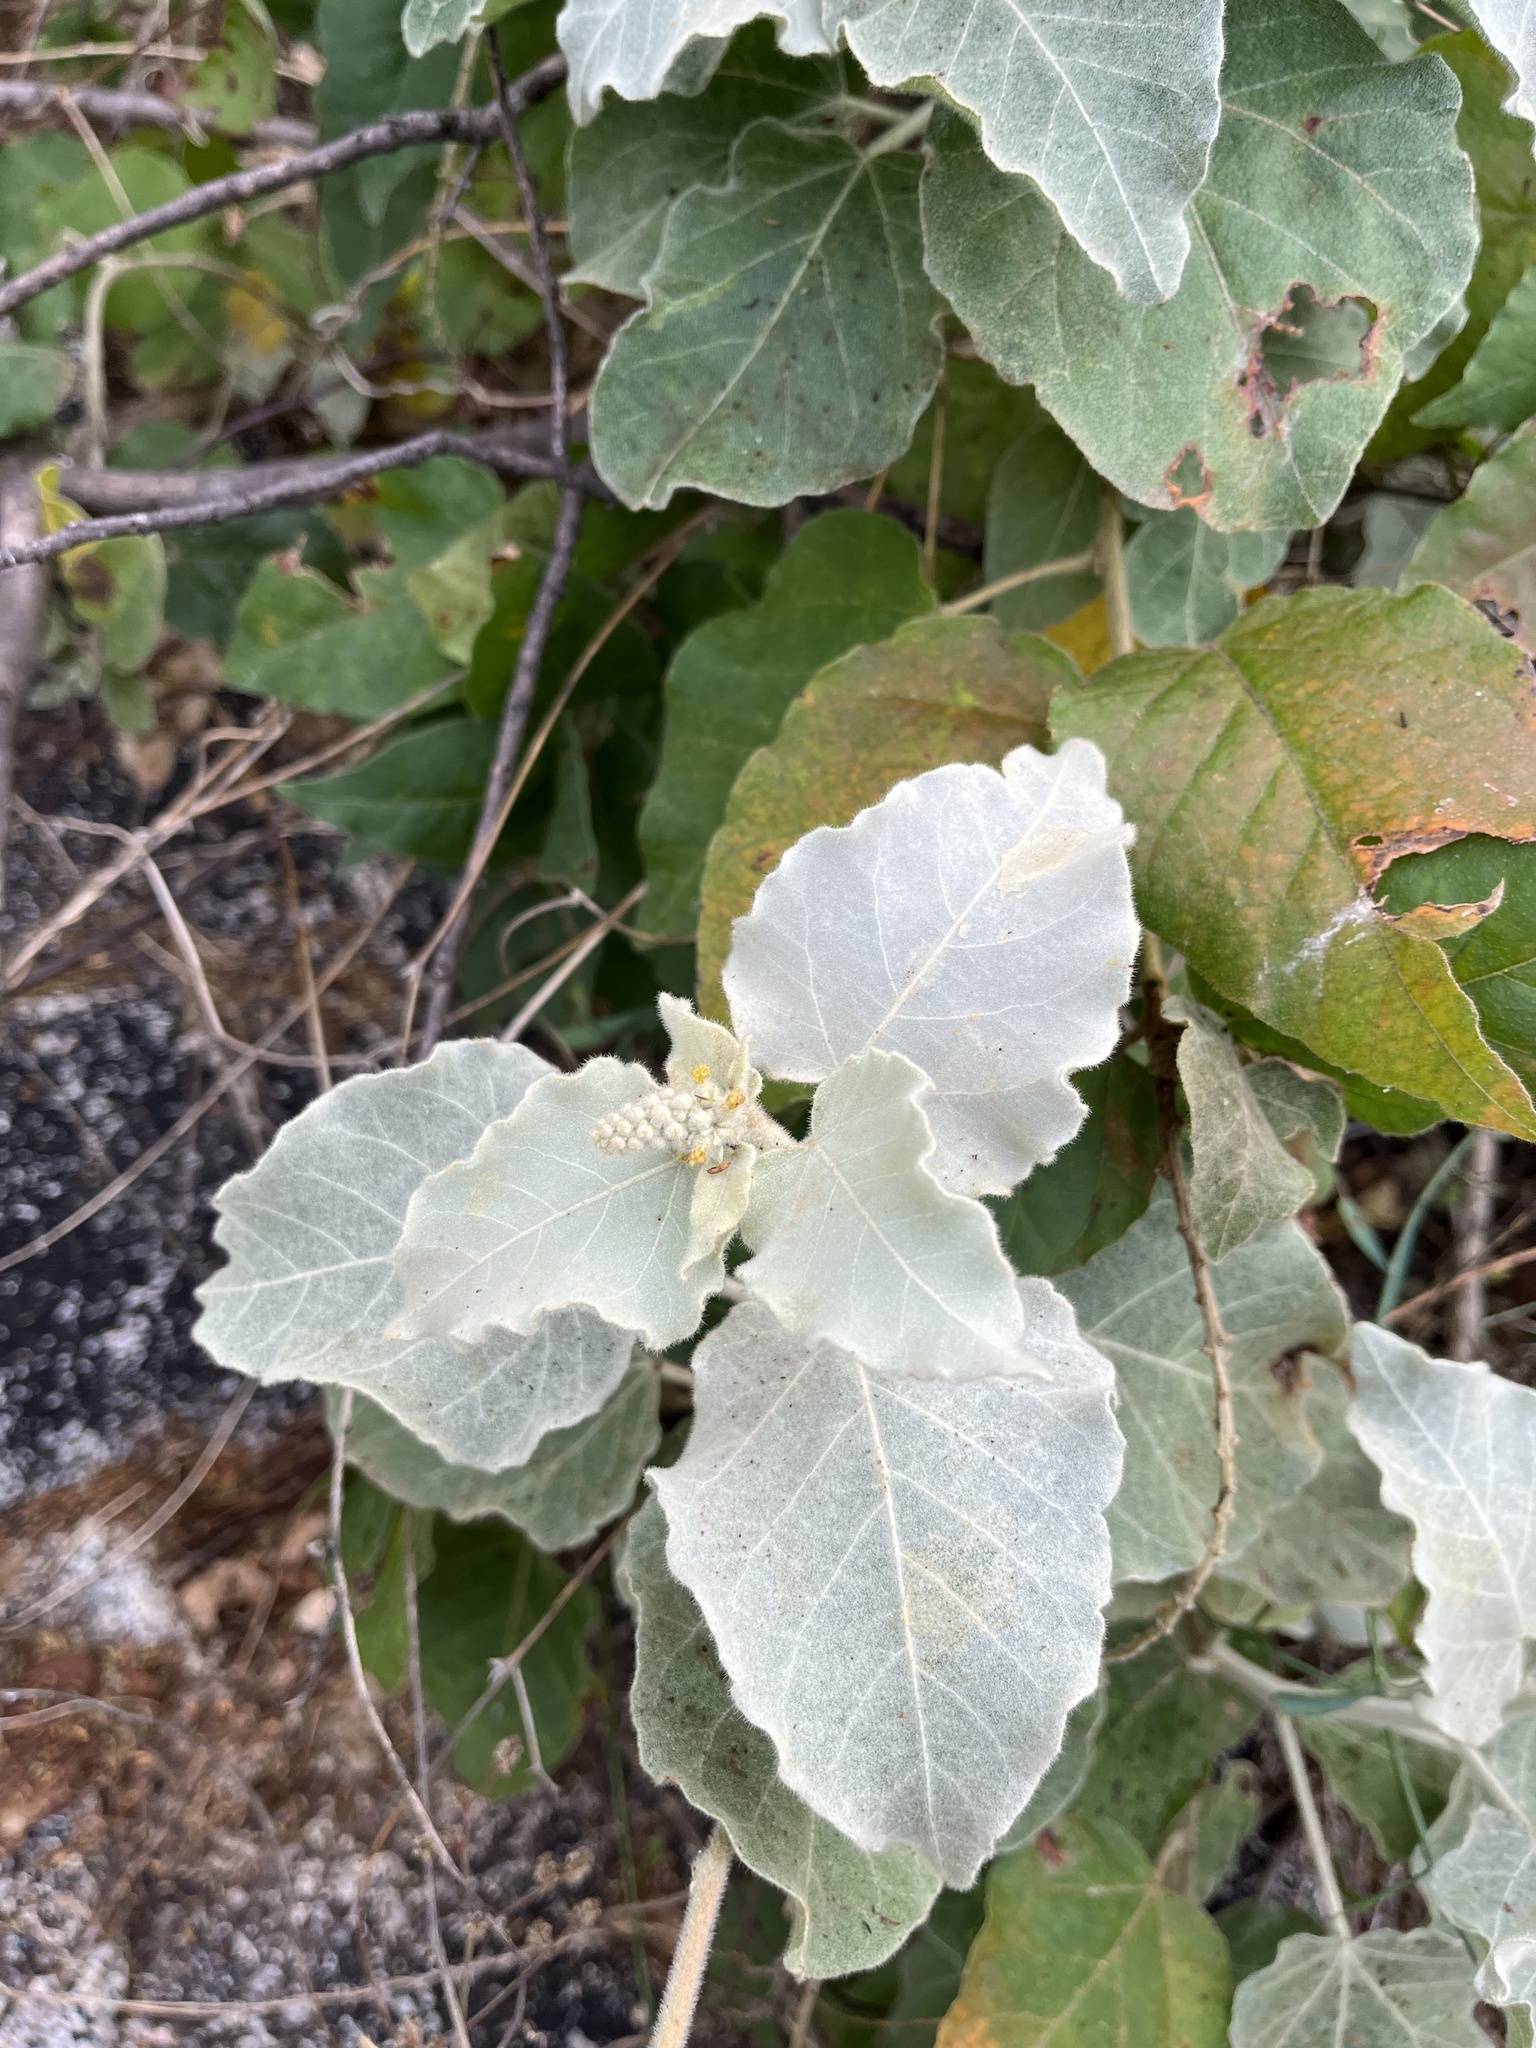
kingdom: Plantae
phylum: Tracheophyta
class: Magnoliopsida
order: Malpighiales
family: Euphorbiaceae
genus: Croton
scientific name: Croton magdalenae
